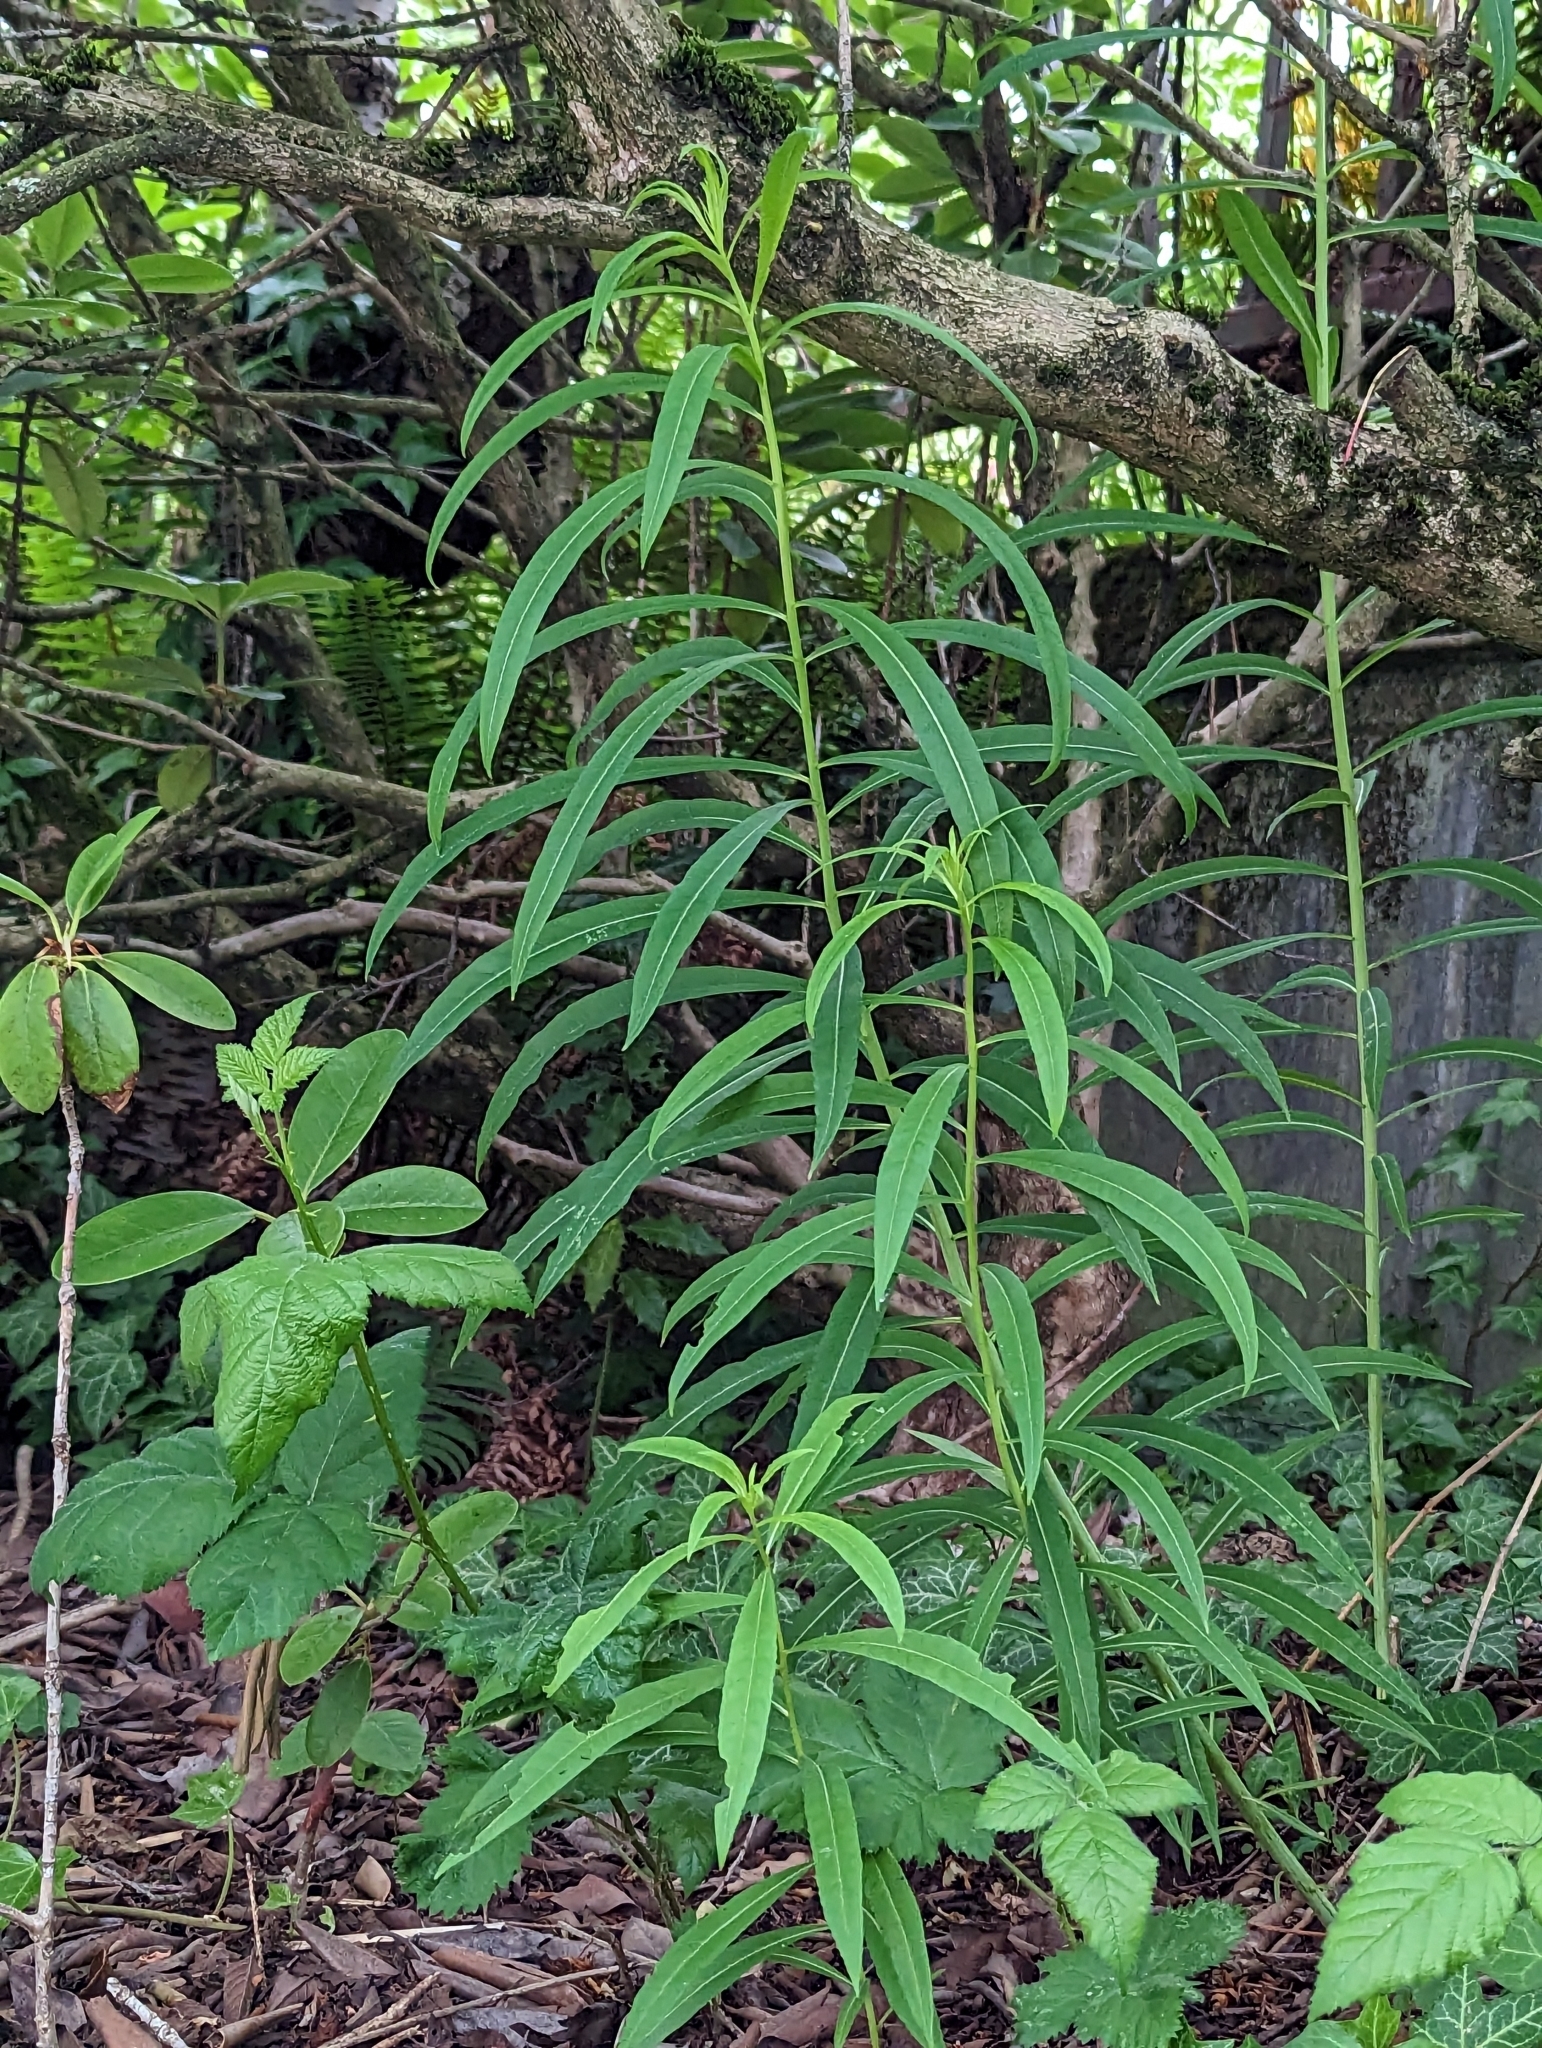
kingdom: Plantae
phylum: Tracheophyta
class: Magnoliopsida
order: Myrtales
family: Onagraceae
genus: Chamaenerion
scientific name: Chamaenerion angustifolium
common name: Fireweed
